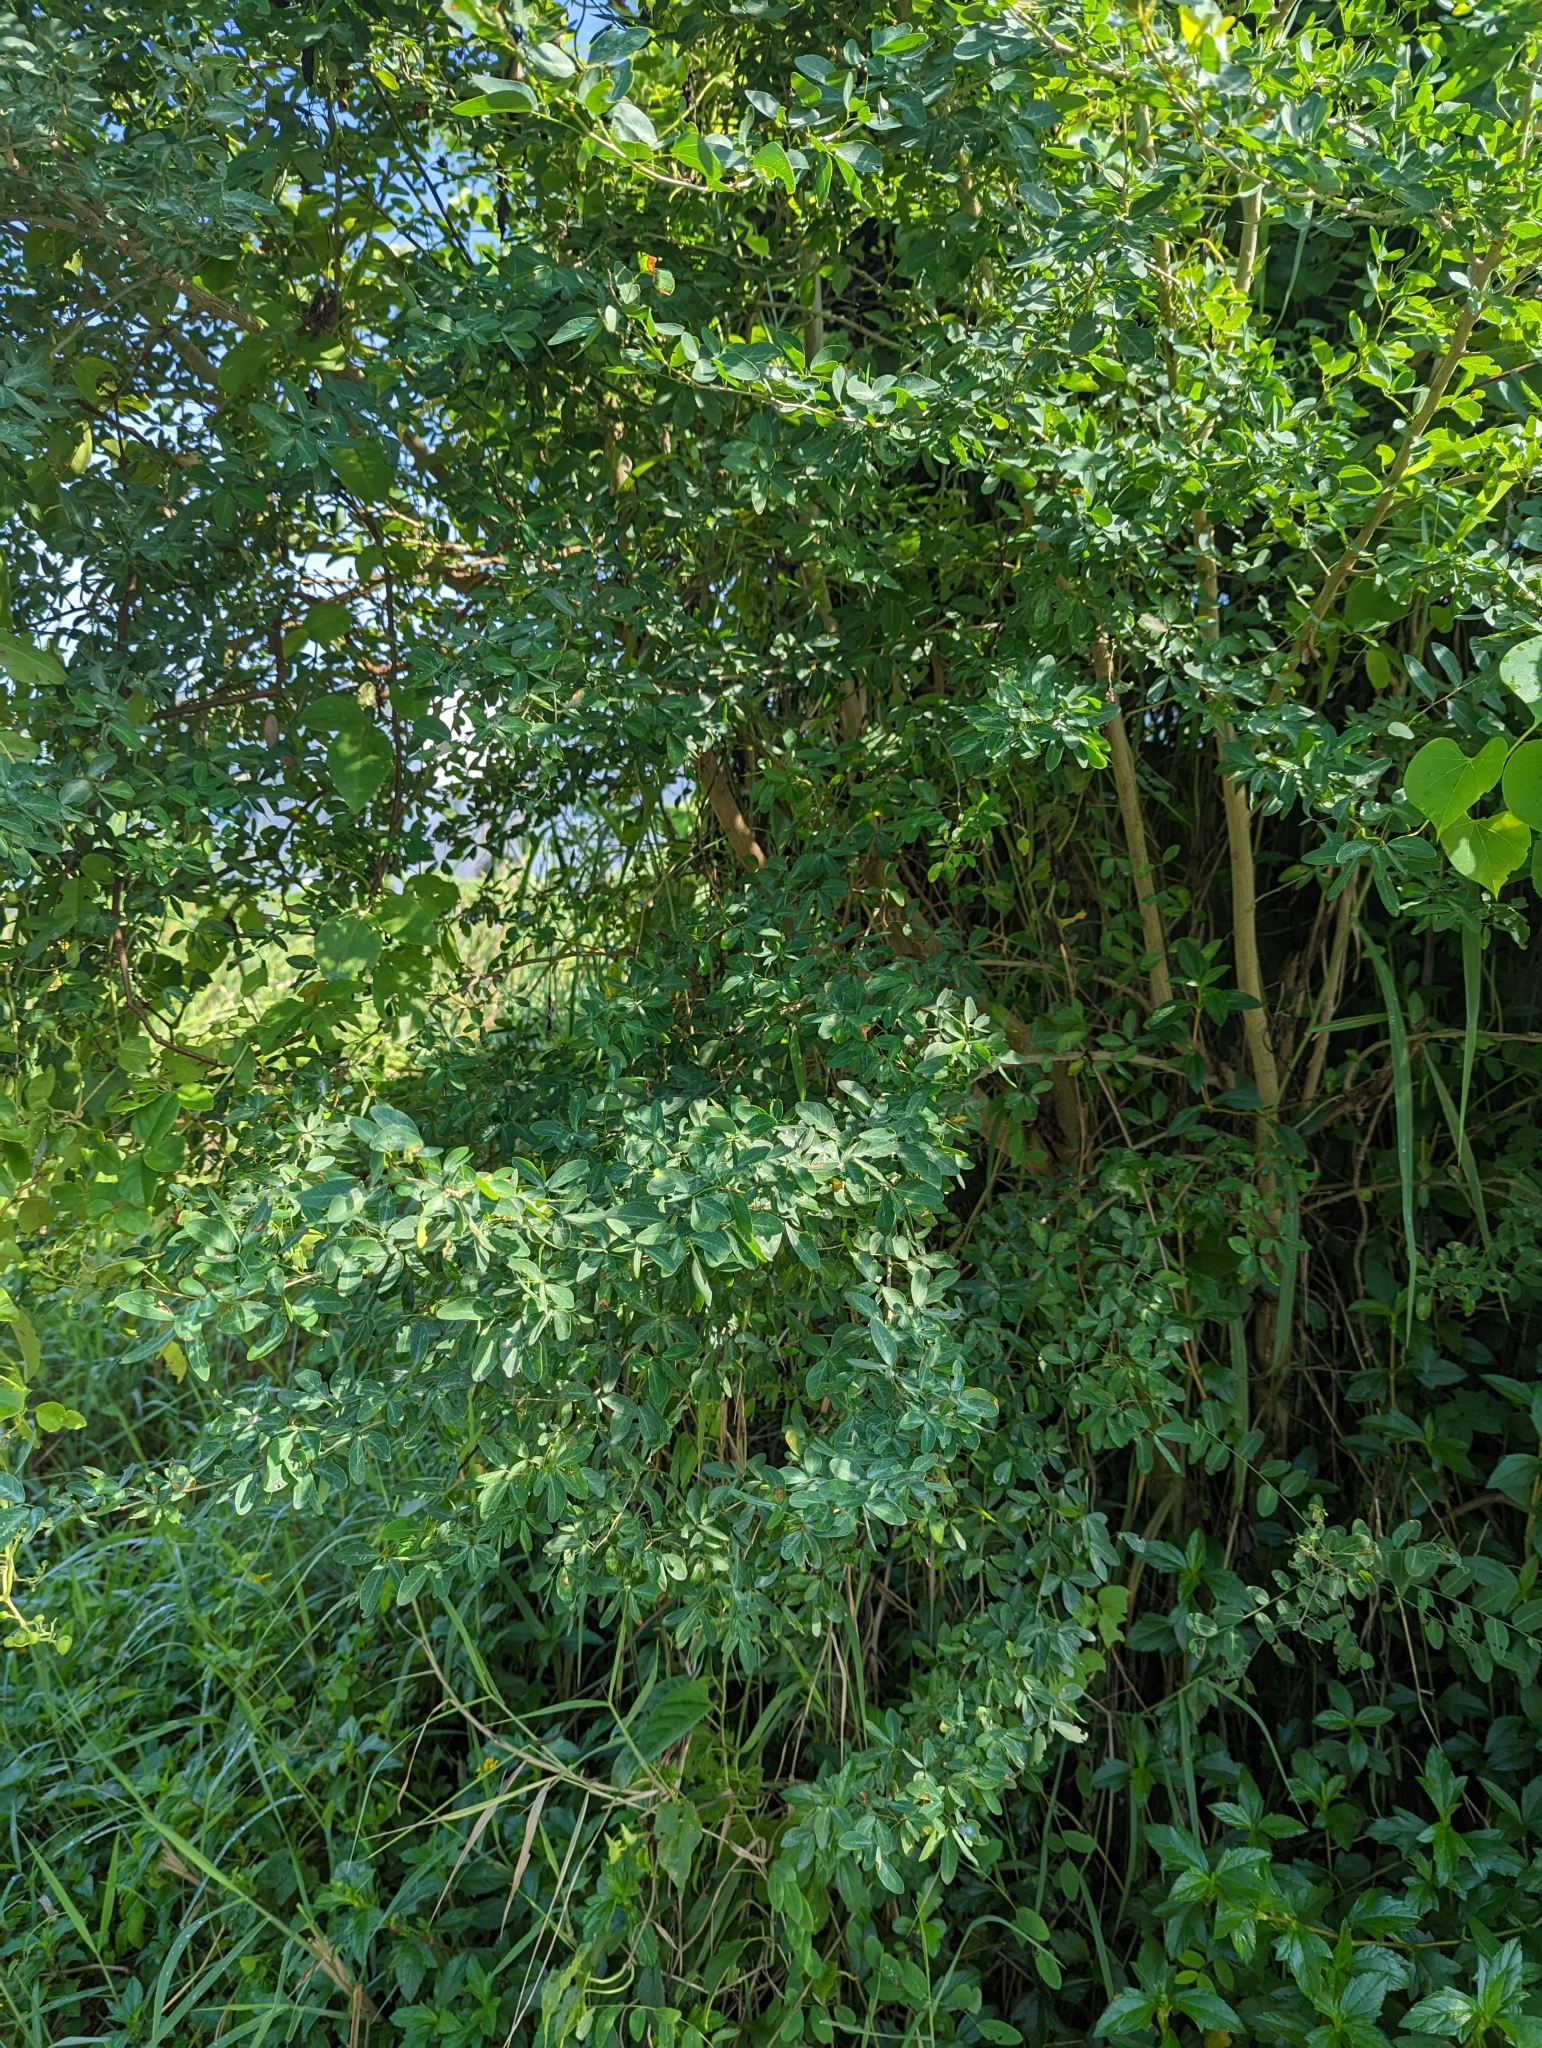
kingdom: Plantae
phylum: Tracheophyta
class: Magnoliopsida
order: Fabales
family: Fabaceae
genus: Pithecellobium
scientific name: Pithecellobium dulce
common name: Monkeypod
